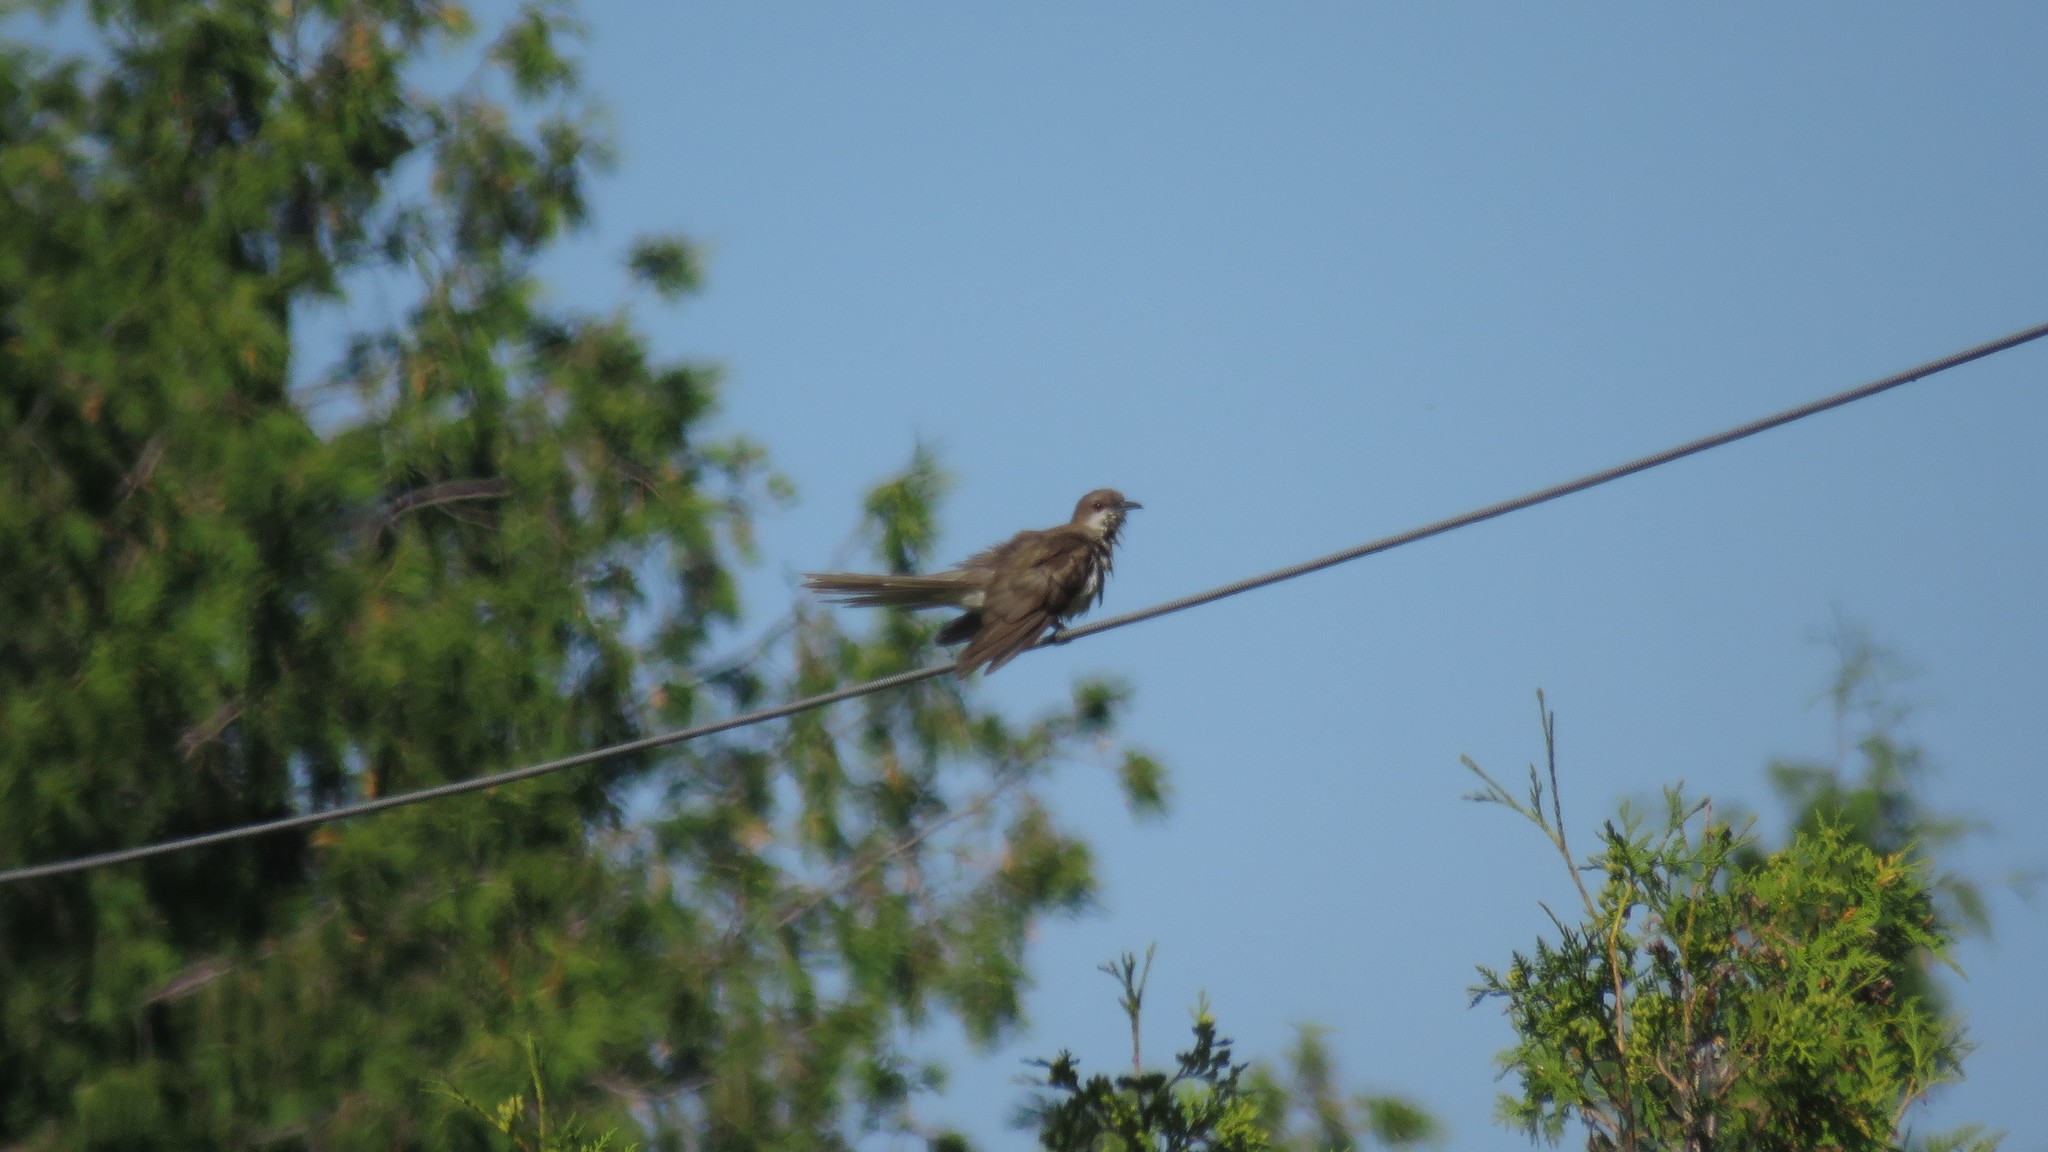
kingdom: Animalia
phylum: Chordata
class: Aves
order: Cuculiformes
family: Cuculidae
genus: Coccyzus
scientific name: Coccyzus erythropthalmus
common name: Black-billed cuckoo
